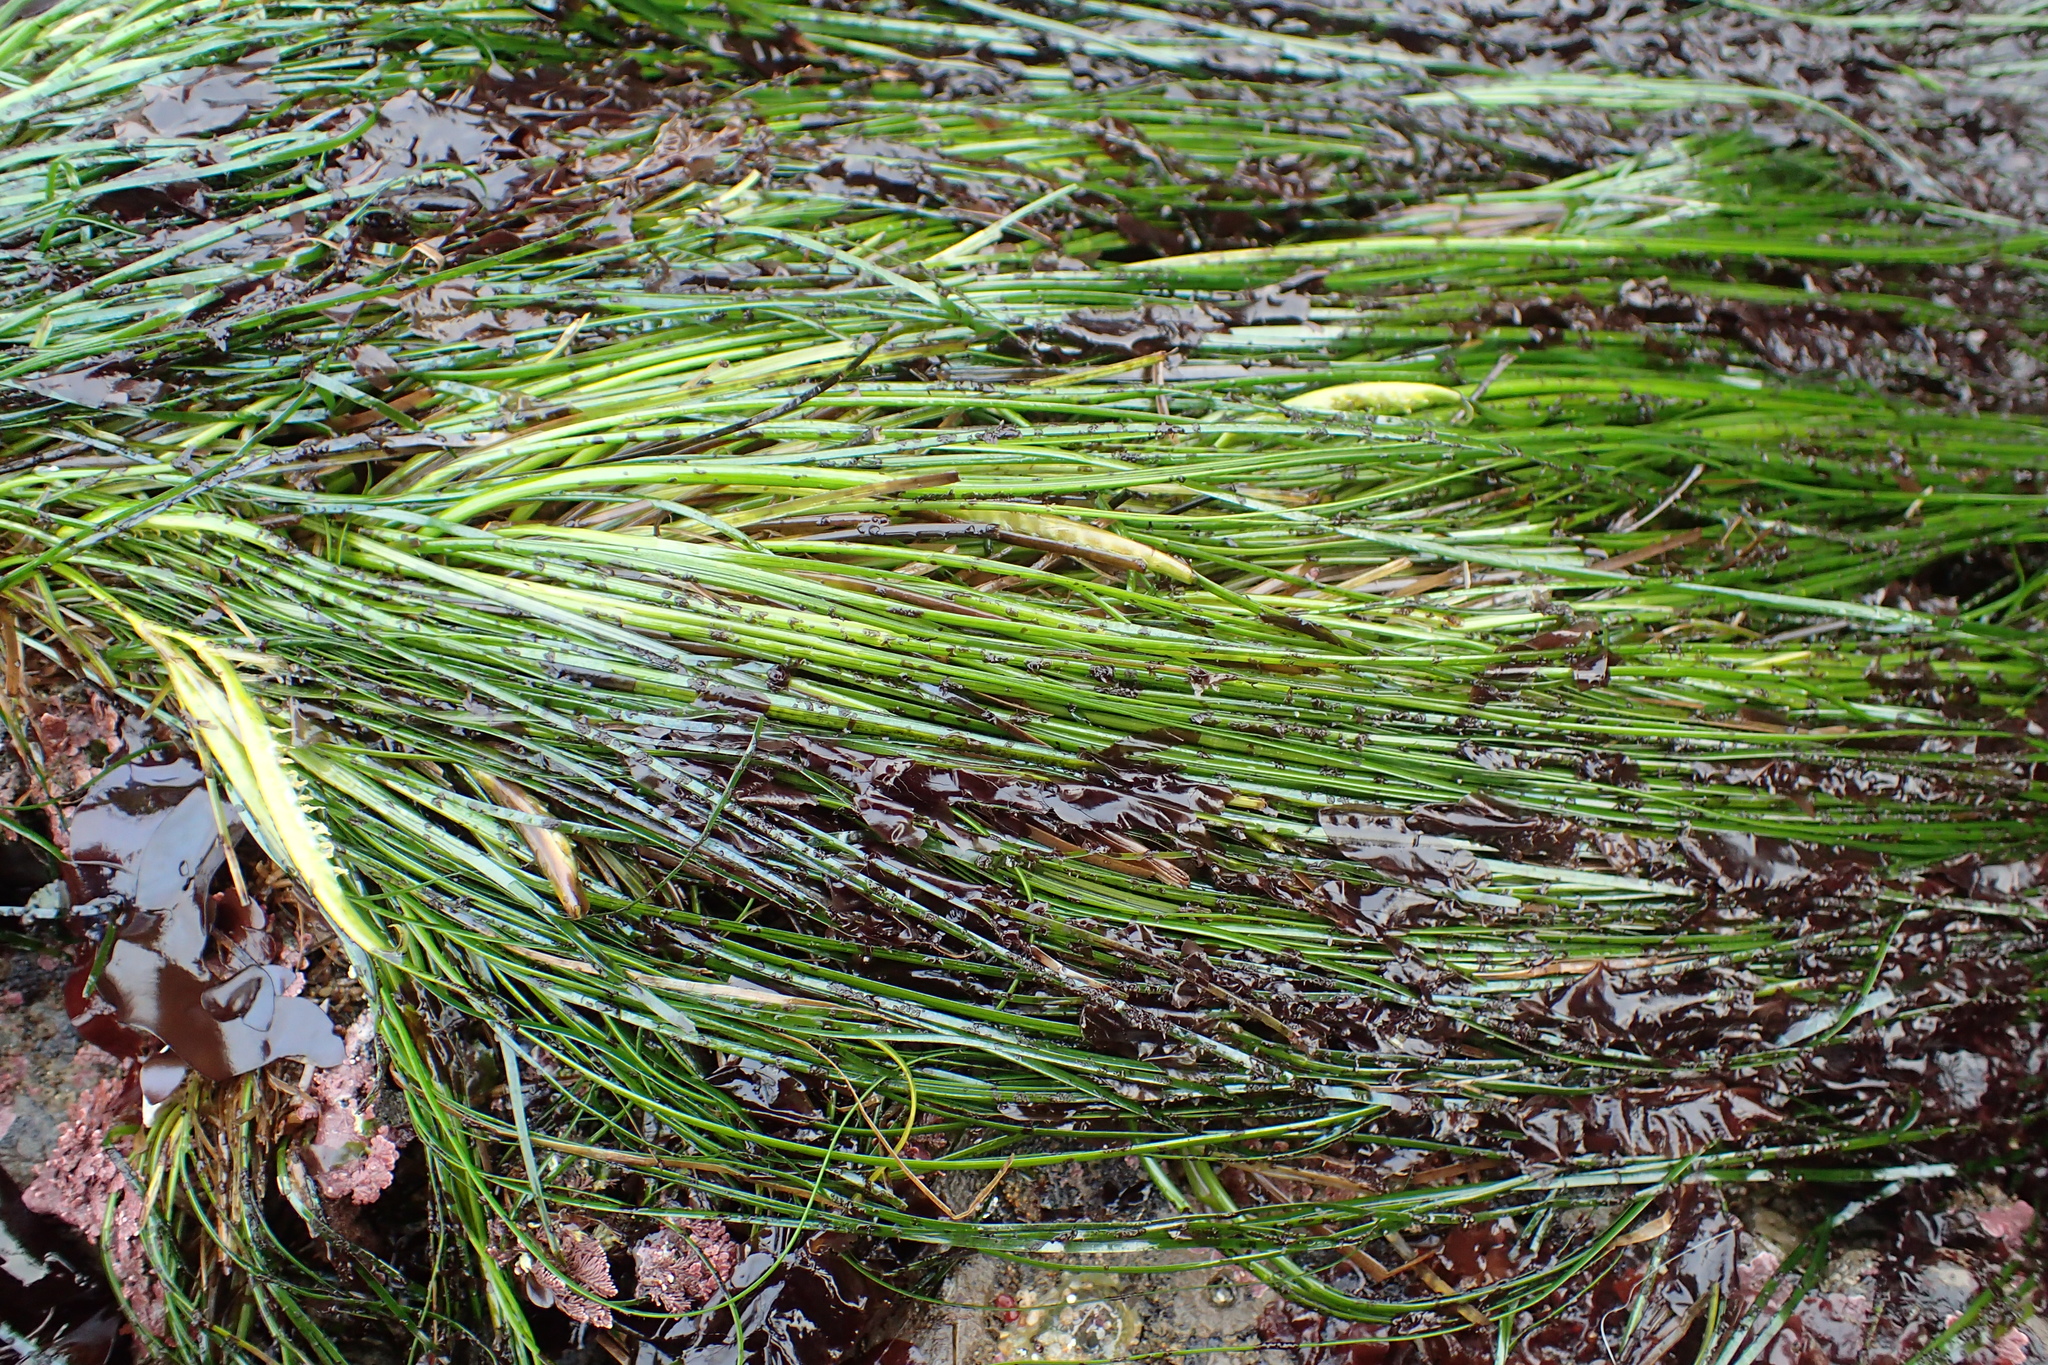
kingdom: Plantae
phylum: Tracheophyta
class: Liliopsida
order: Alismatales
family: Zosteraceae
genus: Phyllospadix
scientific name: Phyllospadix torreyi
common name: Surfgrass
